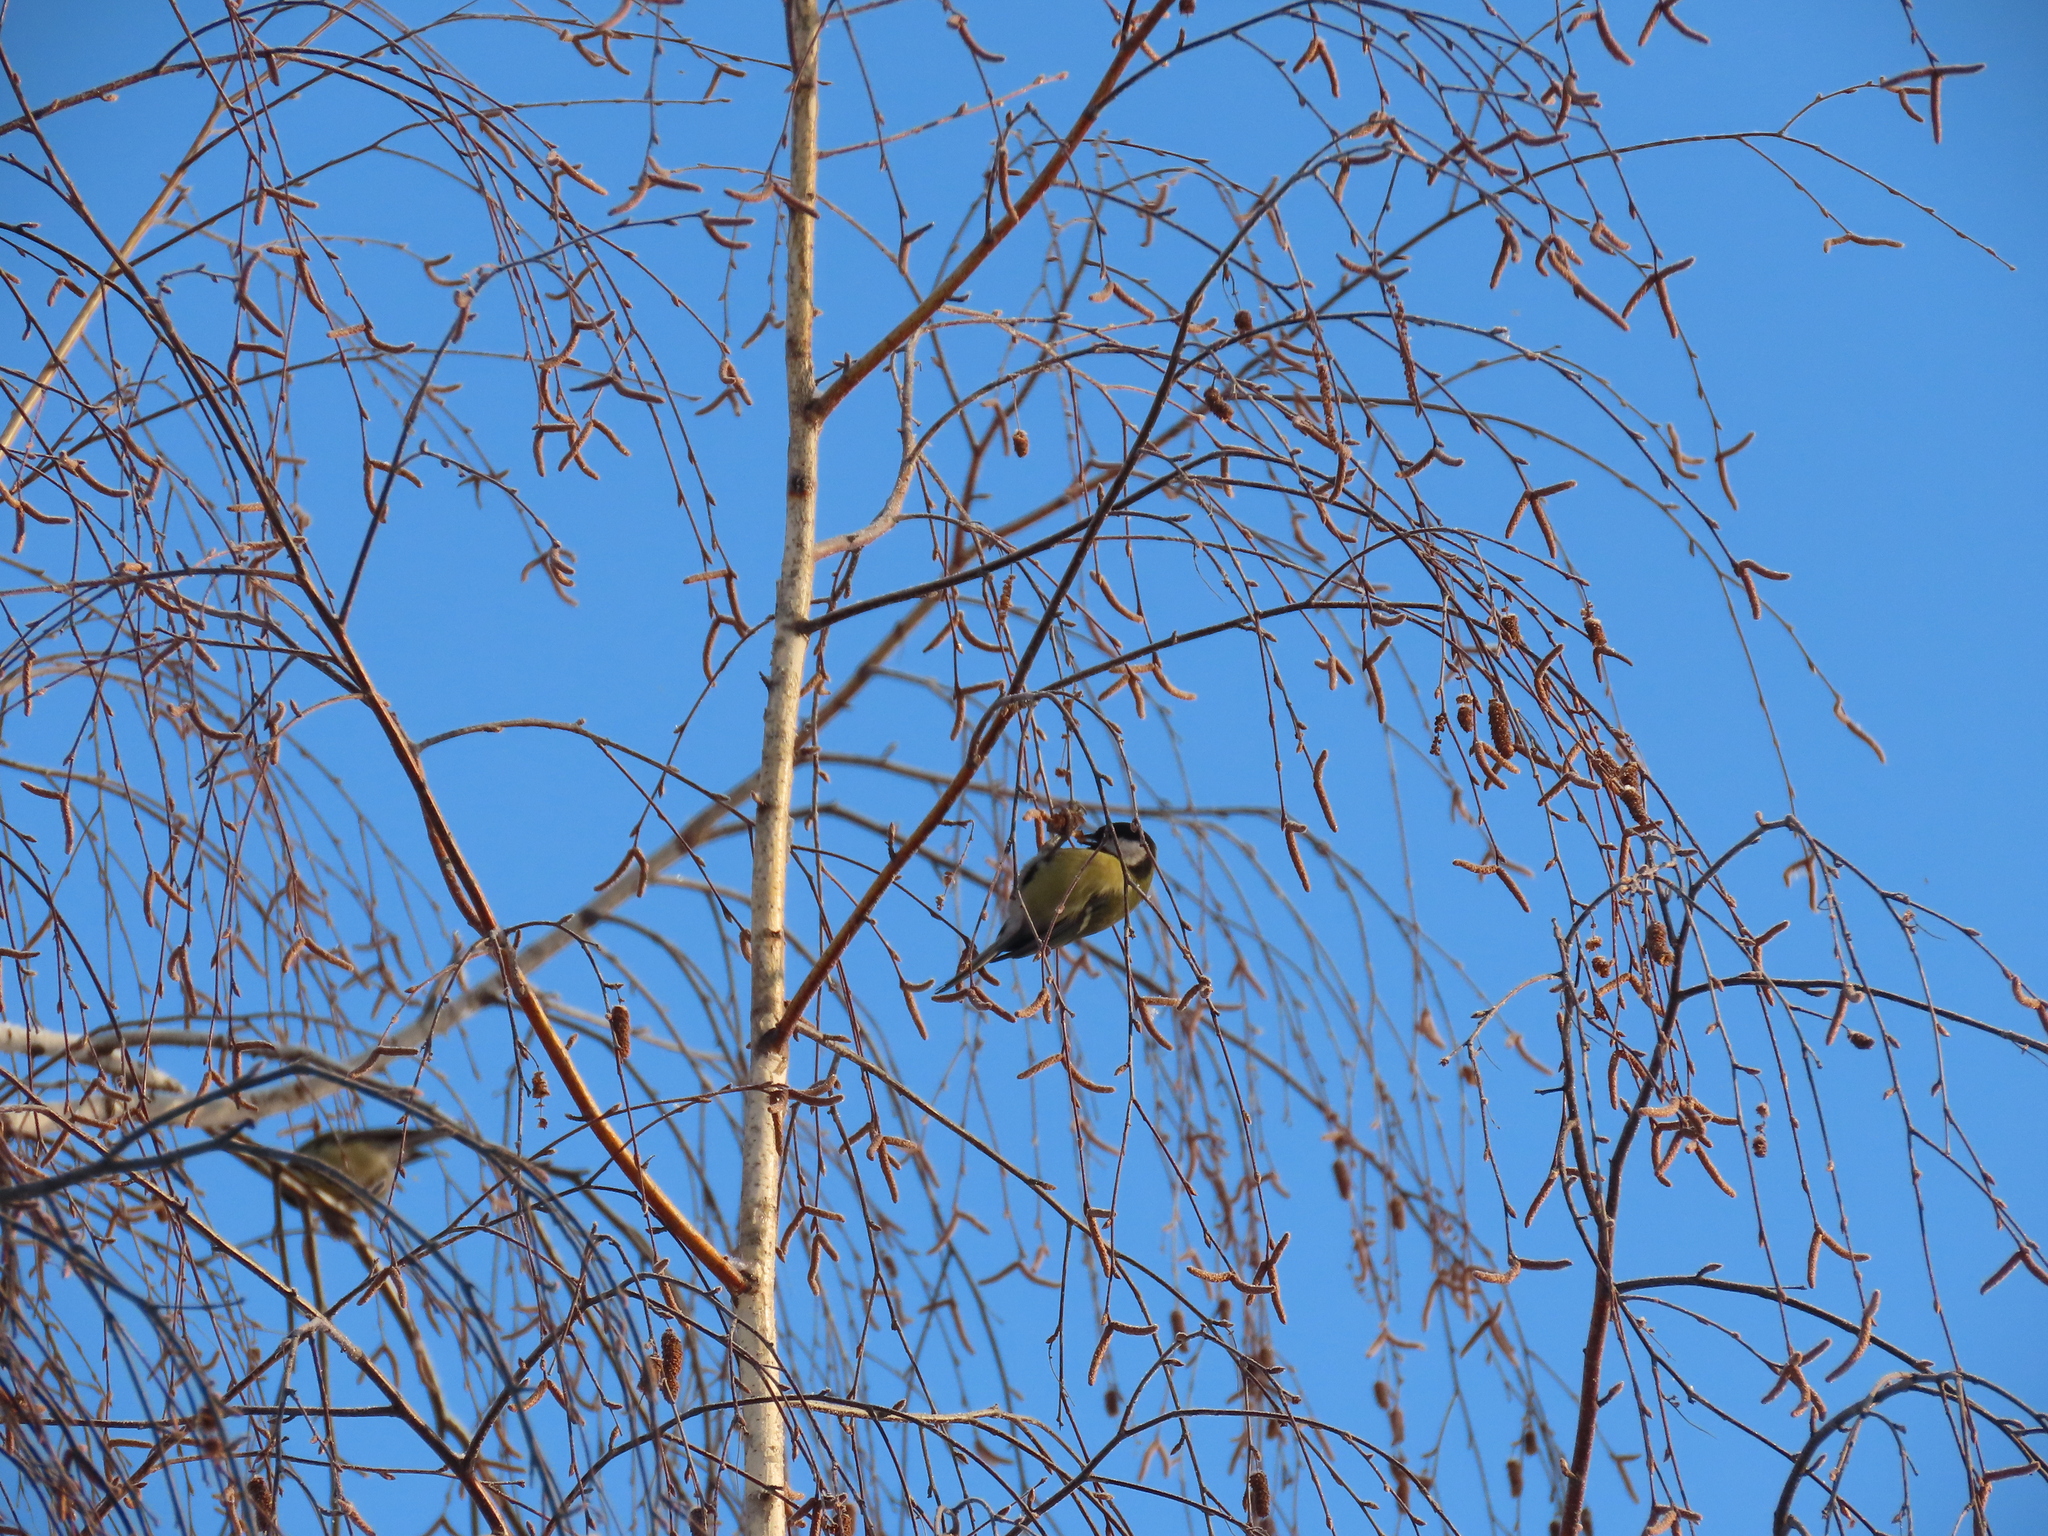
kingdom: Animalia
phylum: Chordata
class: Aves
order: Passeriformes
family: Paridae
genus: Parus
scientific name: Parus major
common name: Great tit
